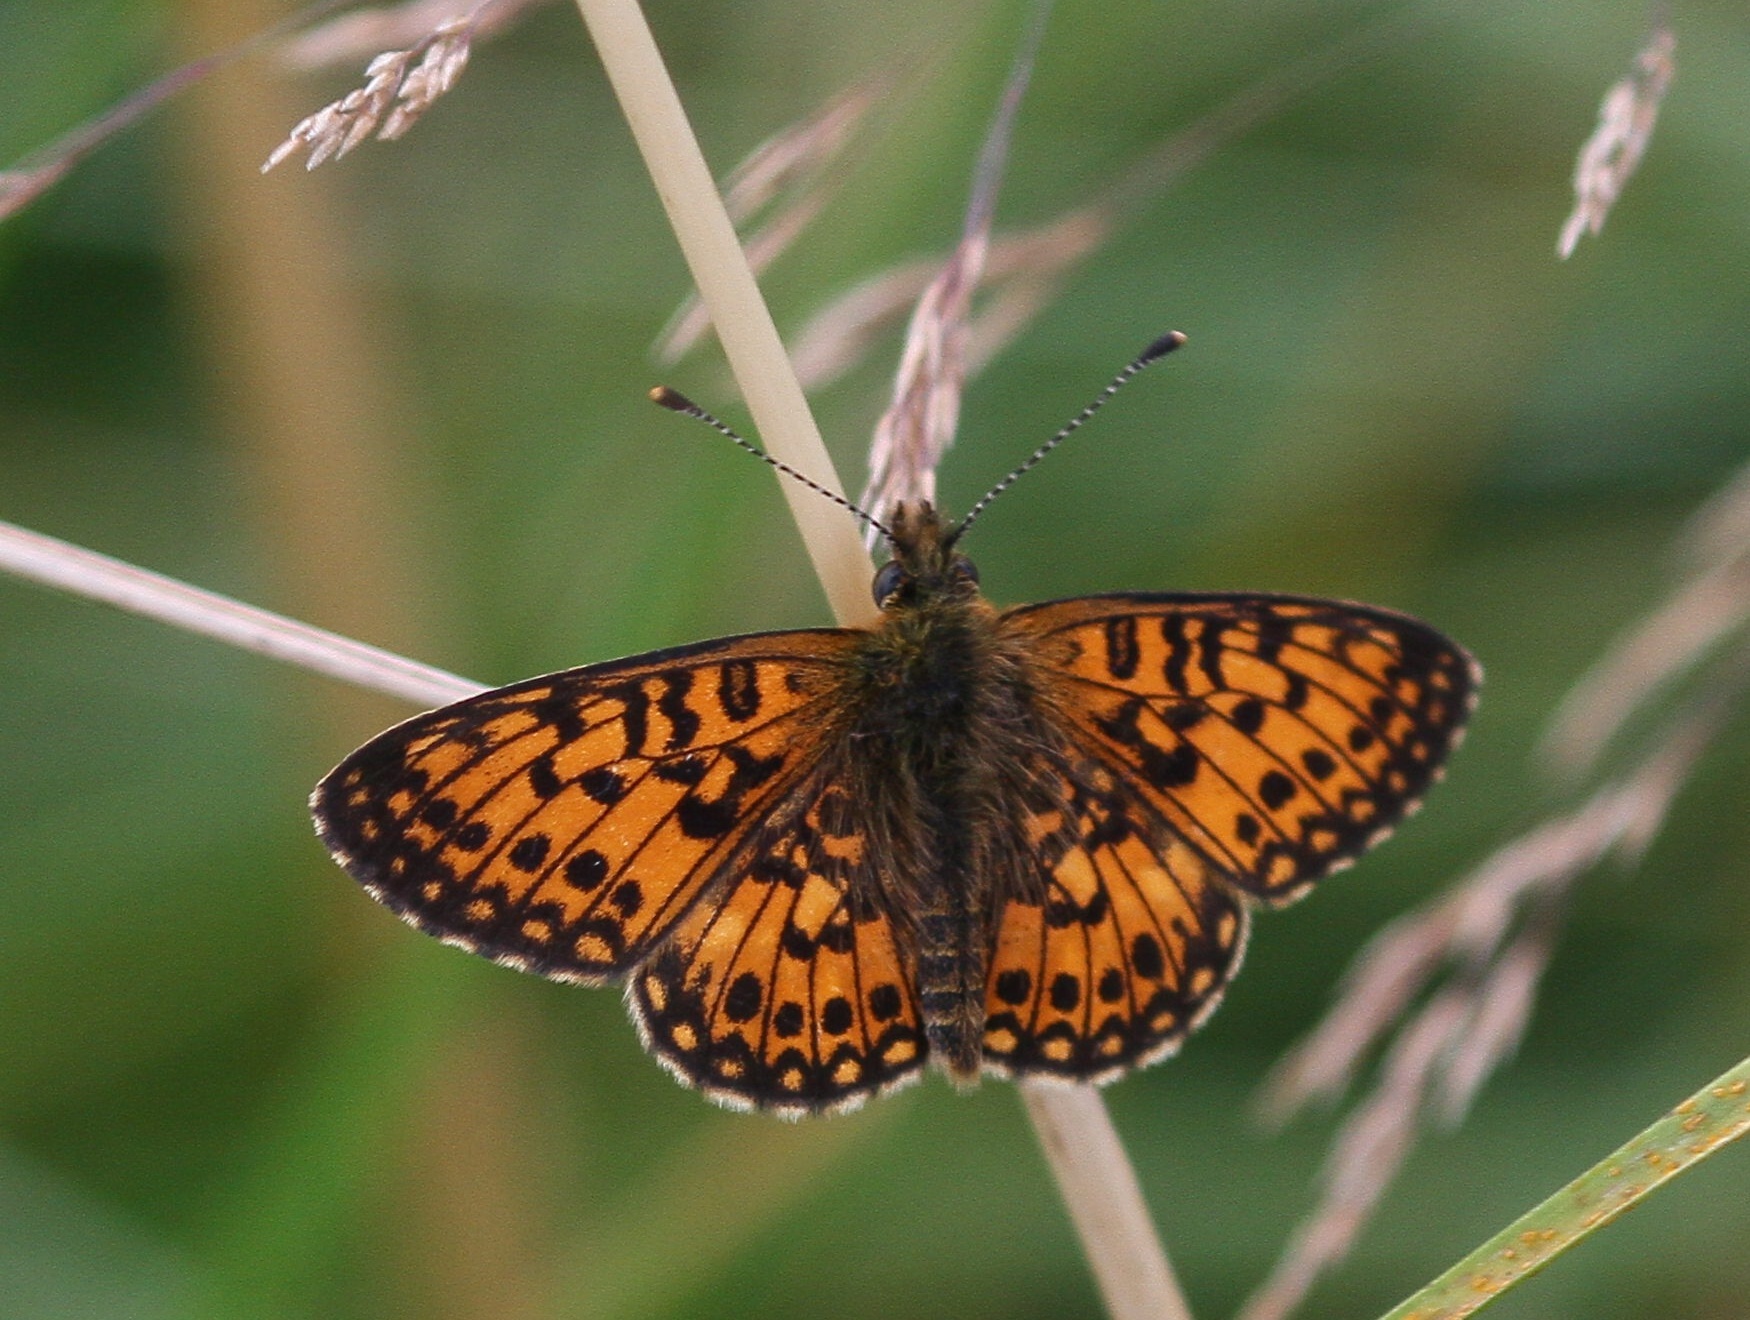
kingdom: Animalia
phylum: Arthropoda
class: Insecta
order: Lepidoptera
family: Nymphalidae
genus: Boloria
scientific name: Boloria selene
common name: Small pearl-bordered fritillary
